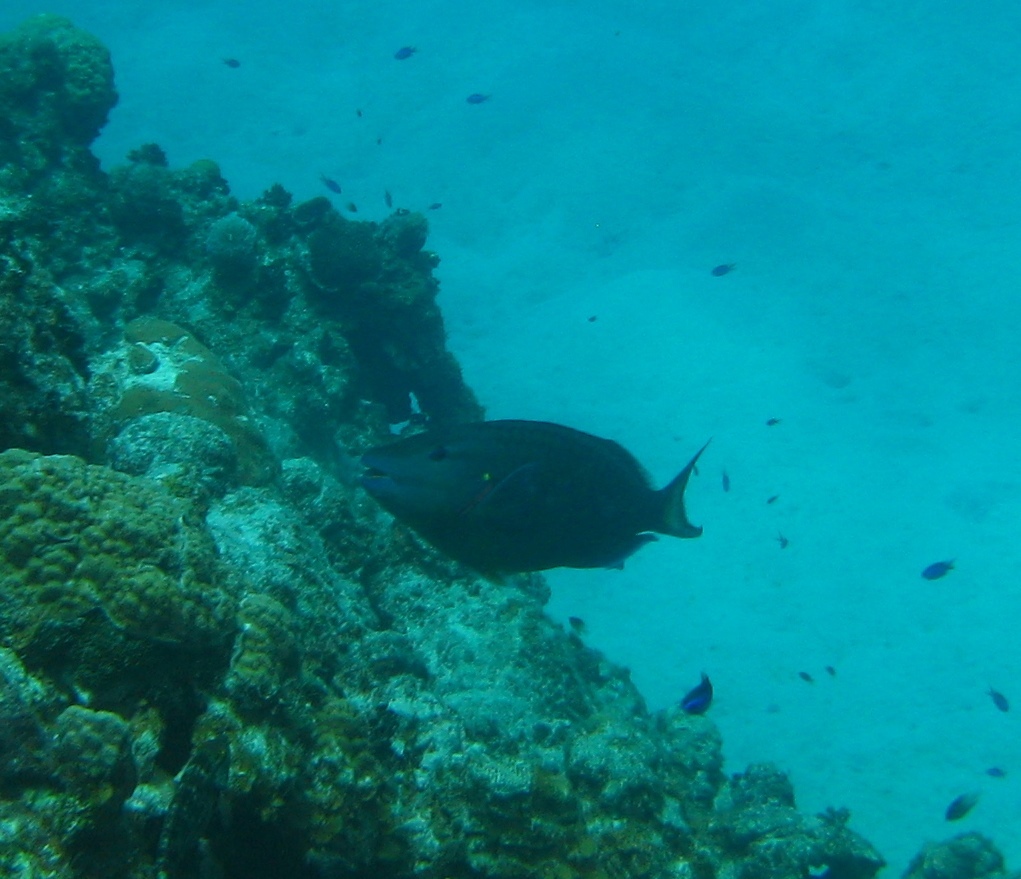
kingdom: Animalia
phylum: Chordata
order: Perciformes
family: Scaridae
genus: Sparisoma
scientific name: Sparisoma viride
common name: Stoplight parrotfish
